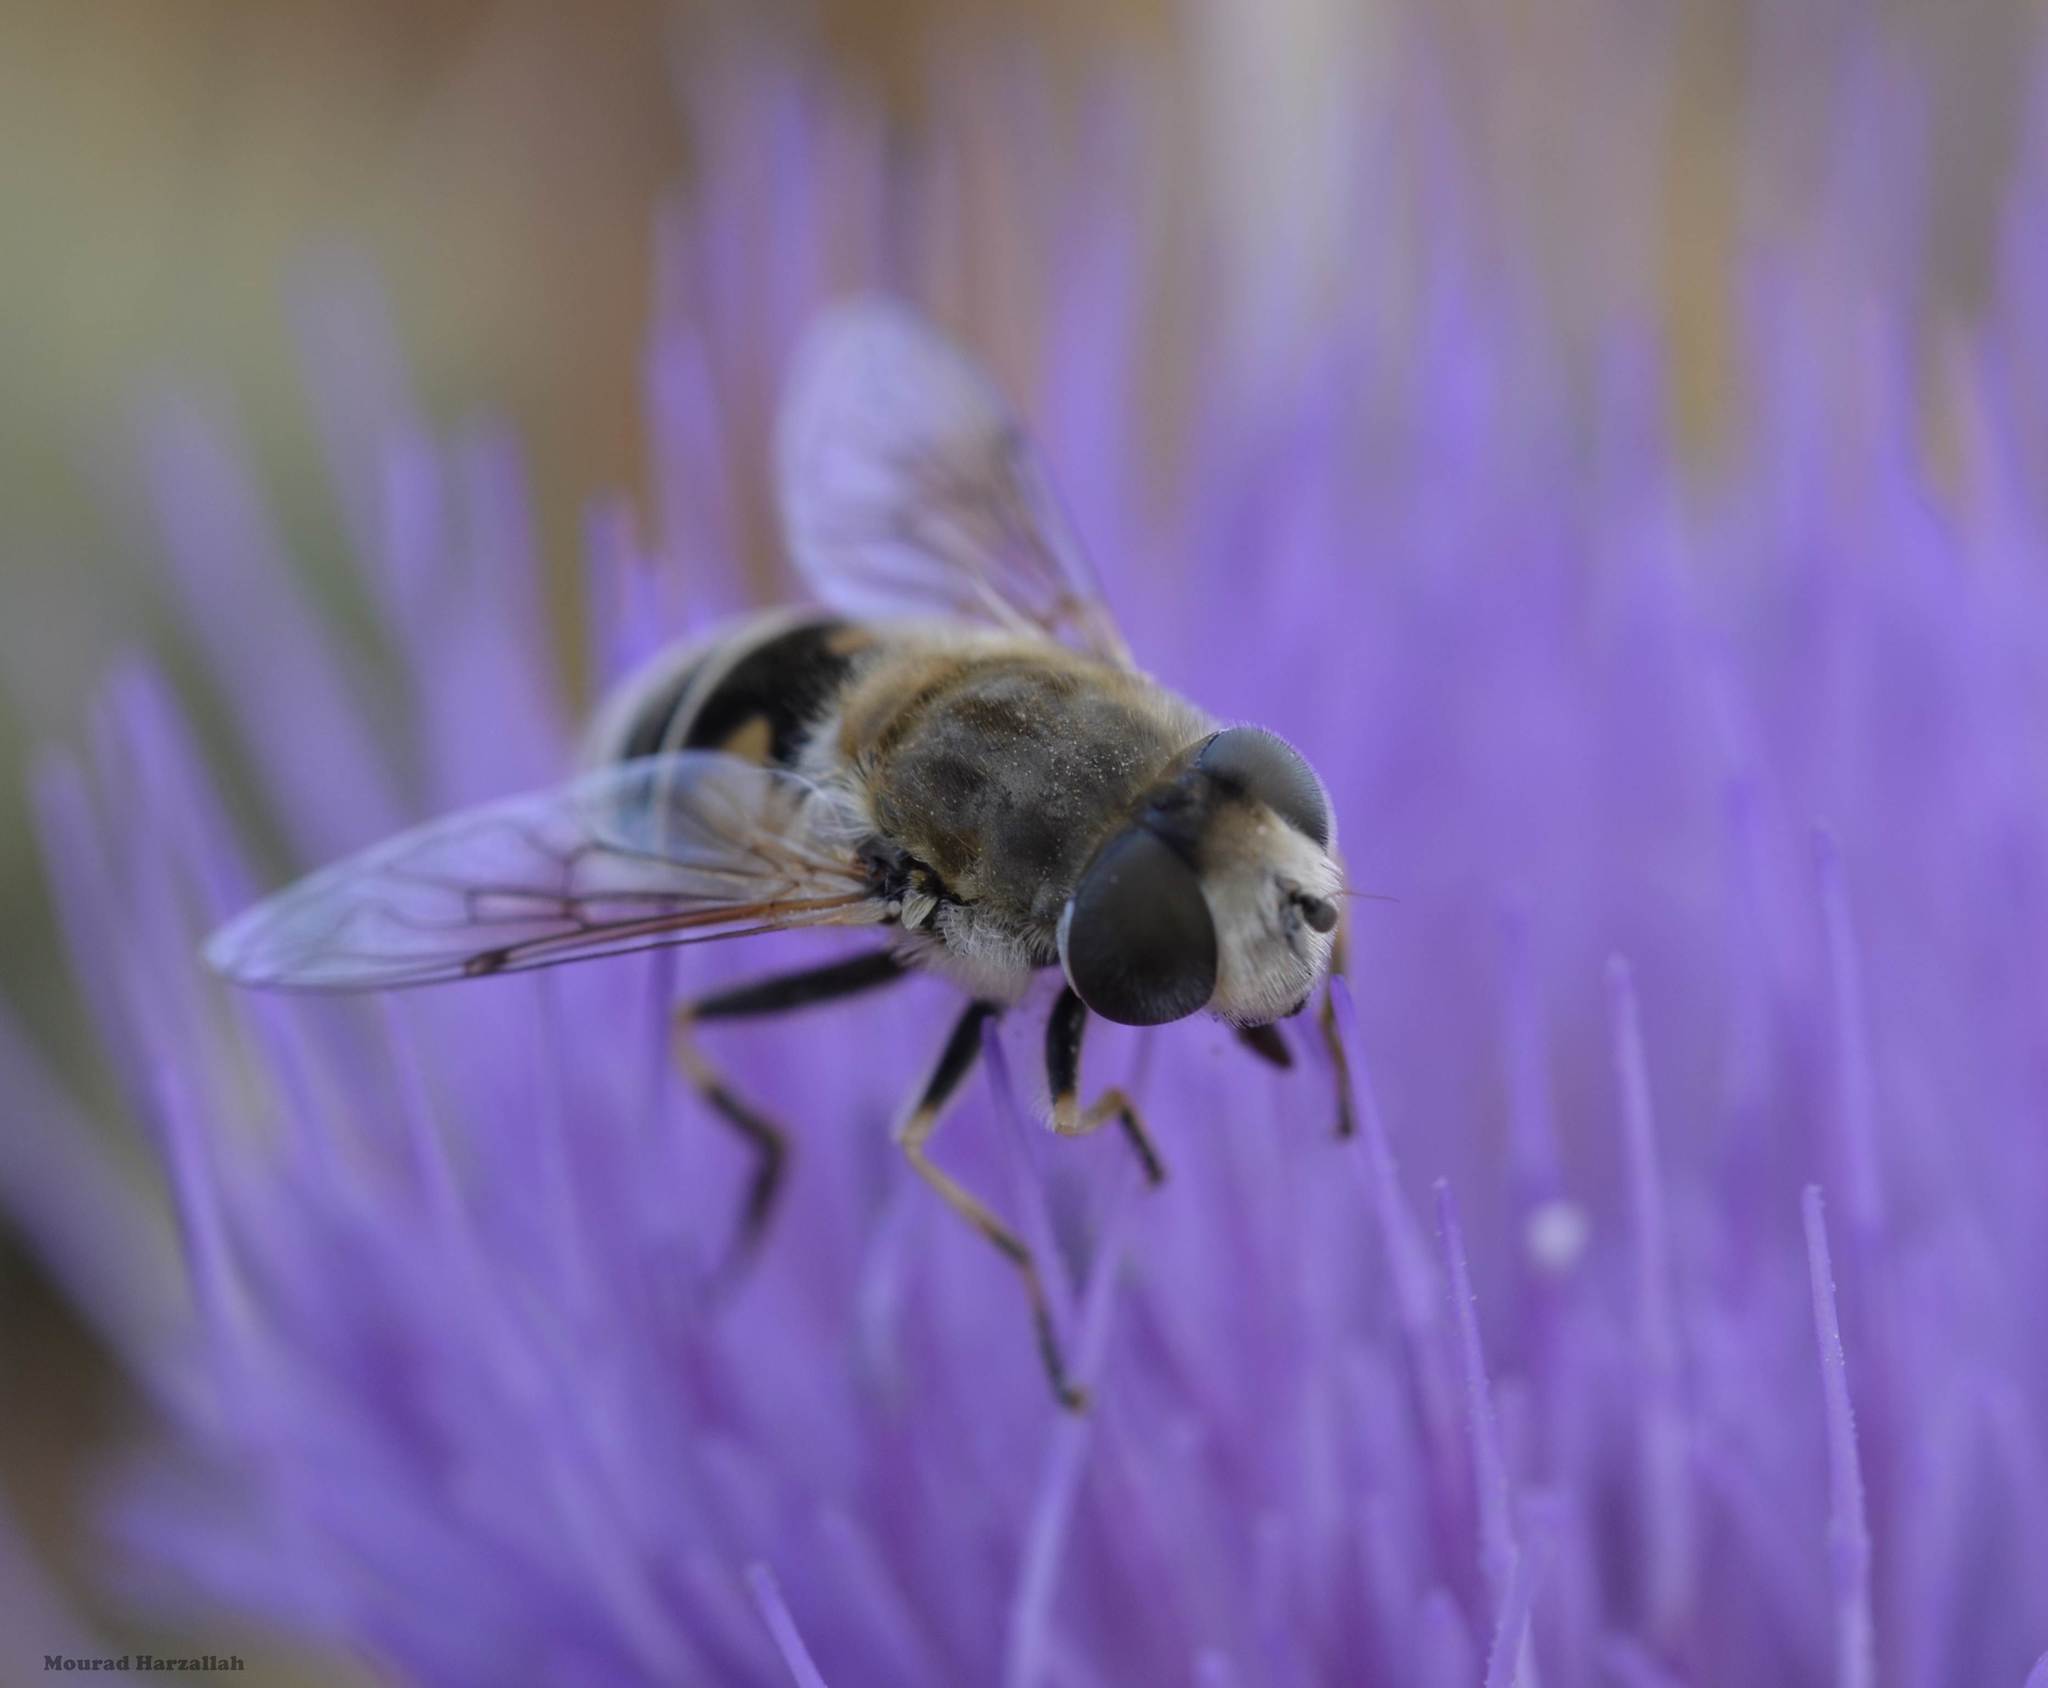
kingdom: Animalia
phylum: Arthropoda
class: Insecta
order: Diptera
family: Syrphidae
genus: Eristalis
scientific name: Eristalis arbustorum
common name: Hover fly
